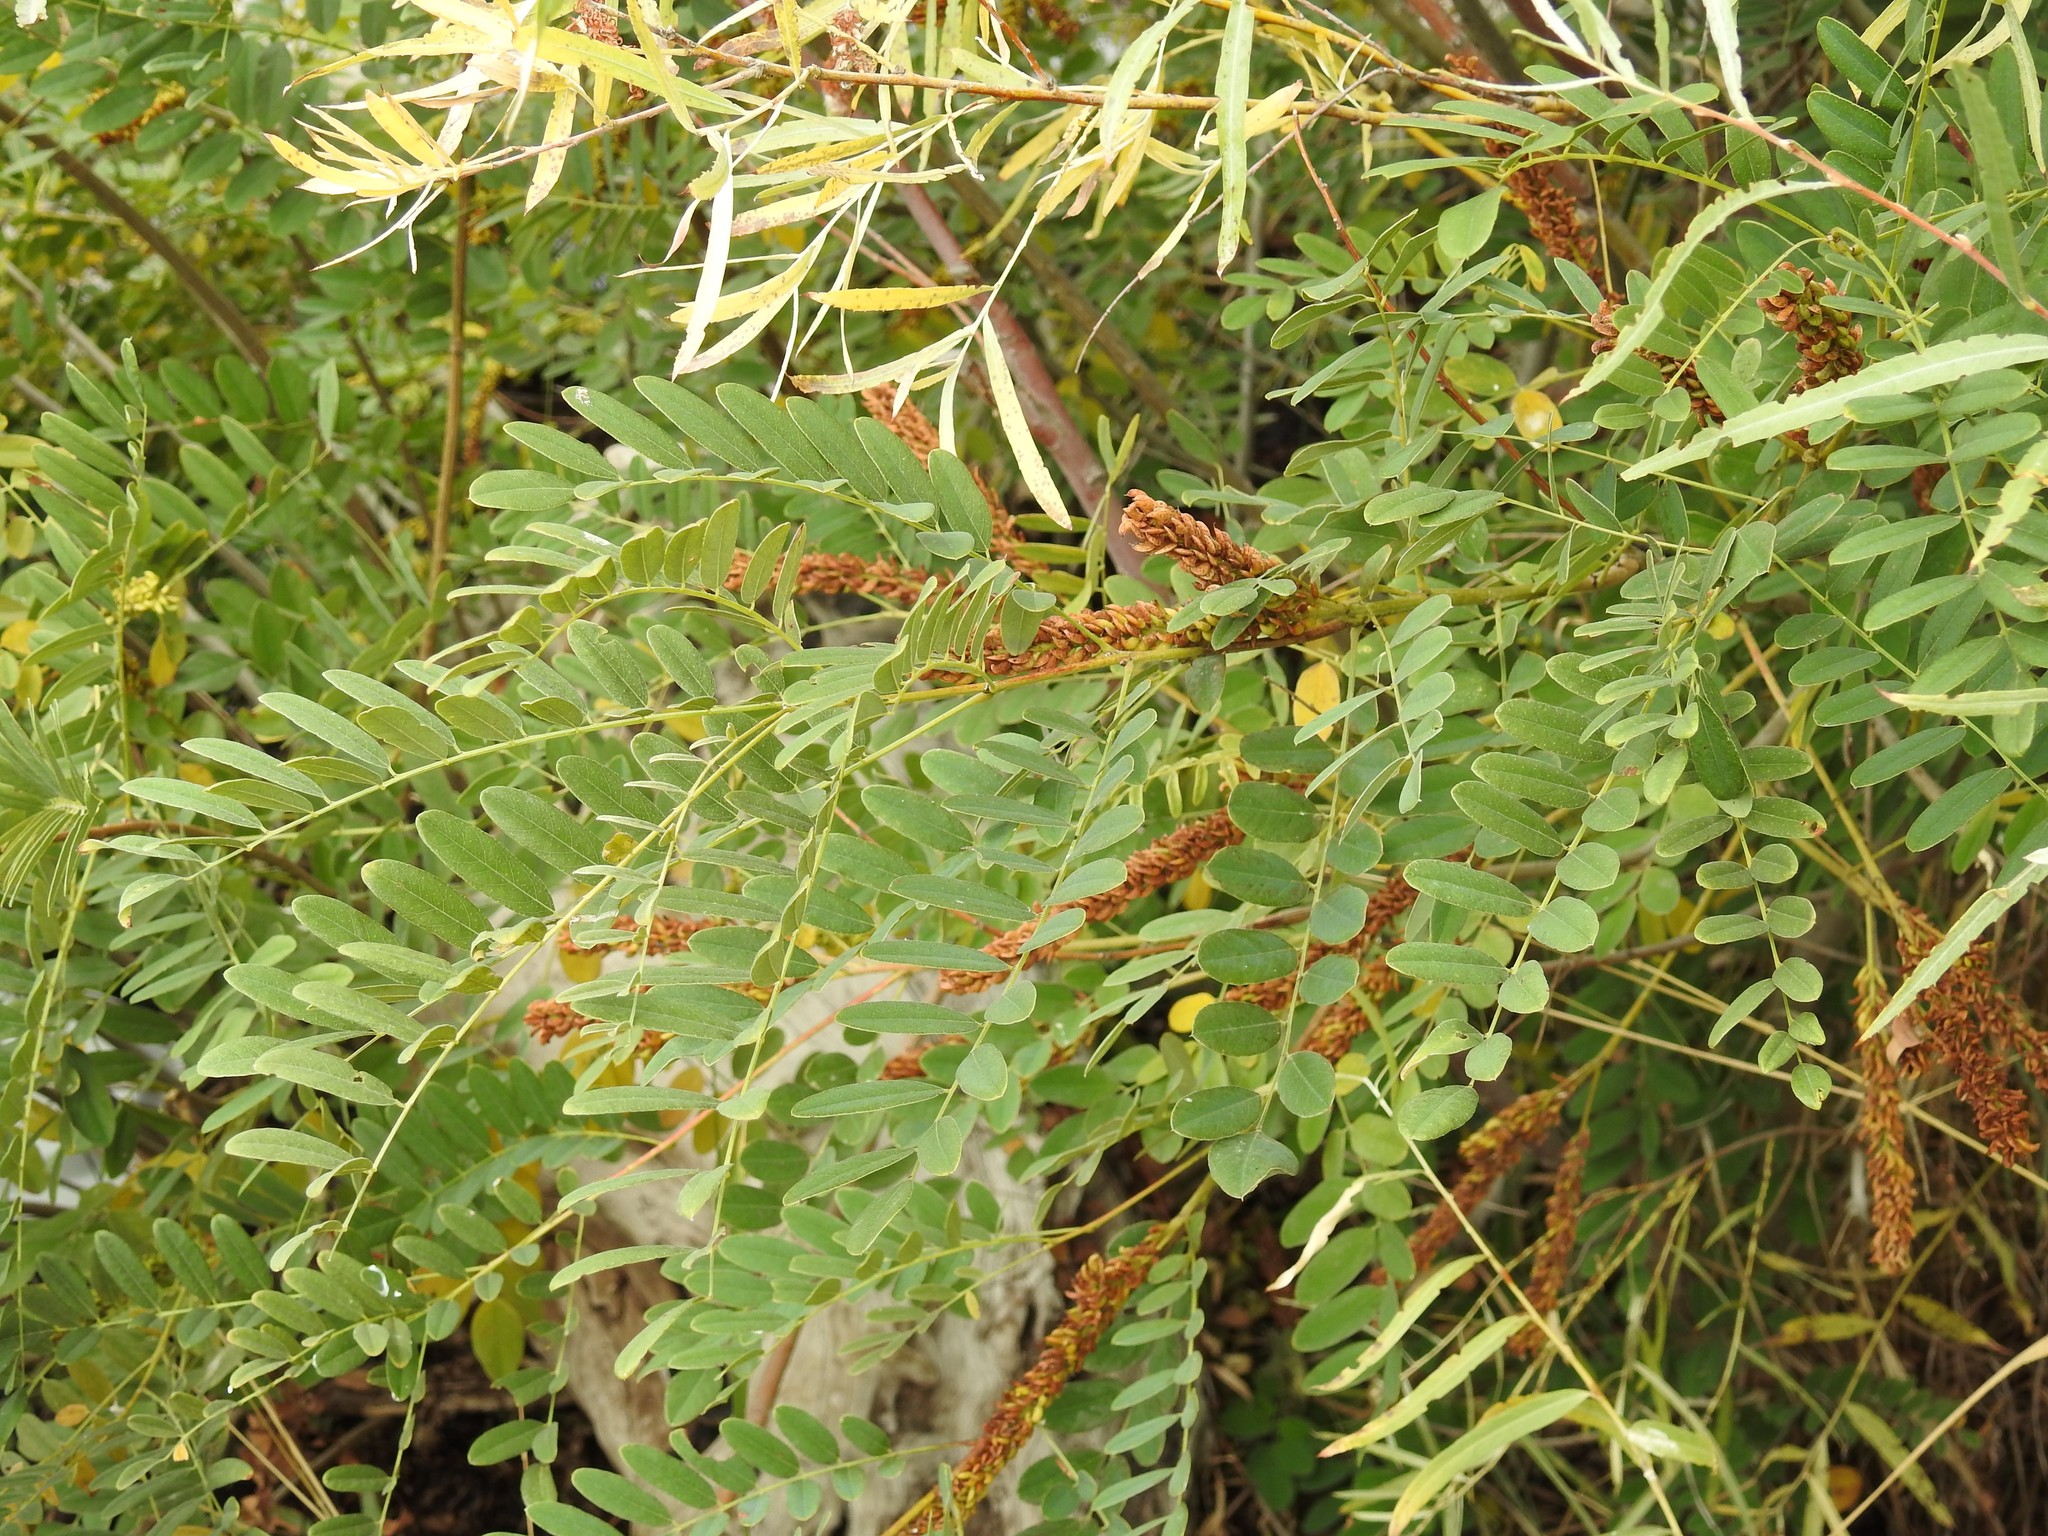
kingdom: Plantae
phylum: Tracheophyta
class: Magnoliopsida
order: Fabales
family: Fabaceae
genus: Amorpha
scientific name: Amorpha fruticosa
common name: False indigo
